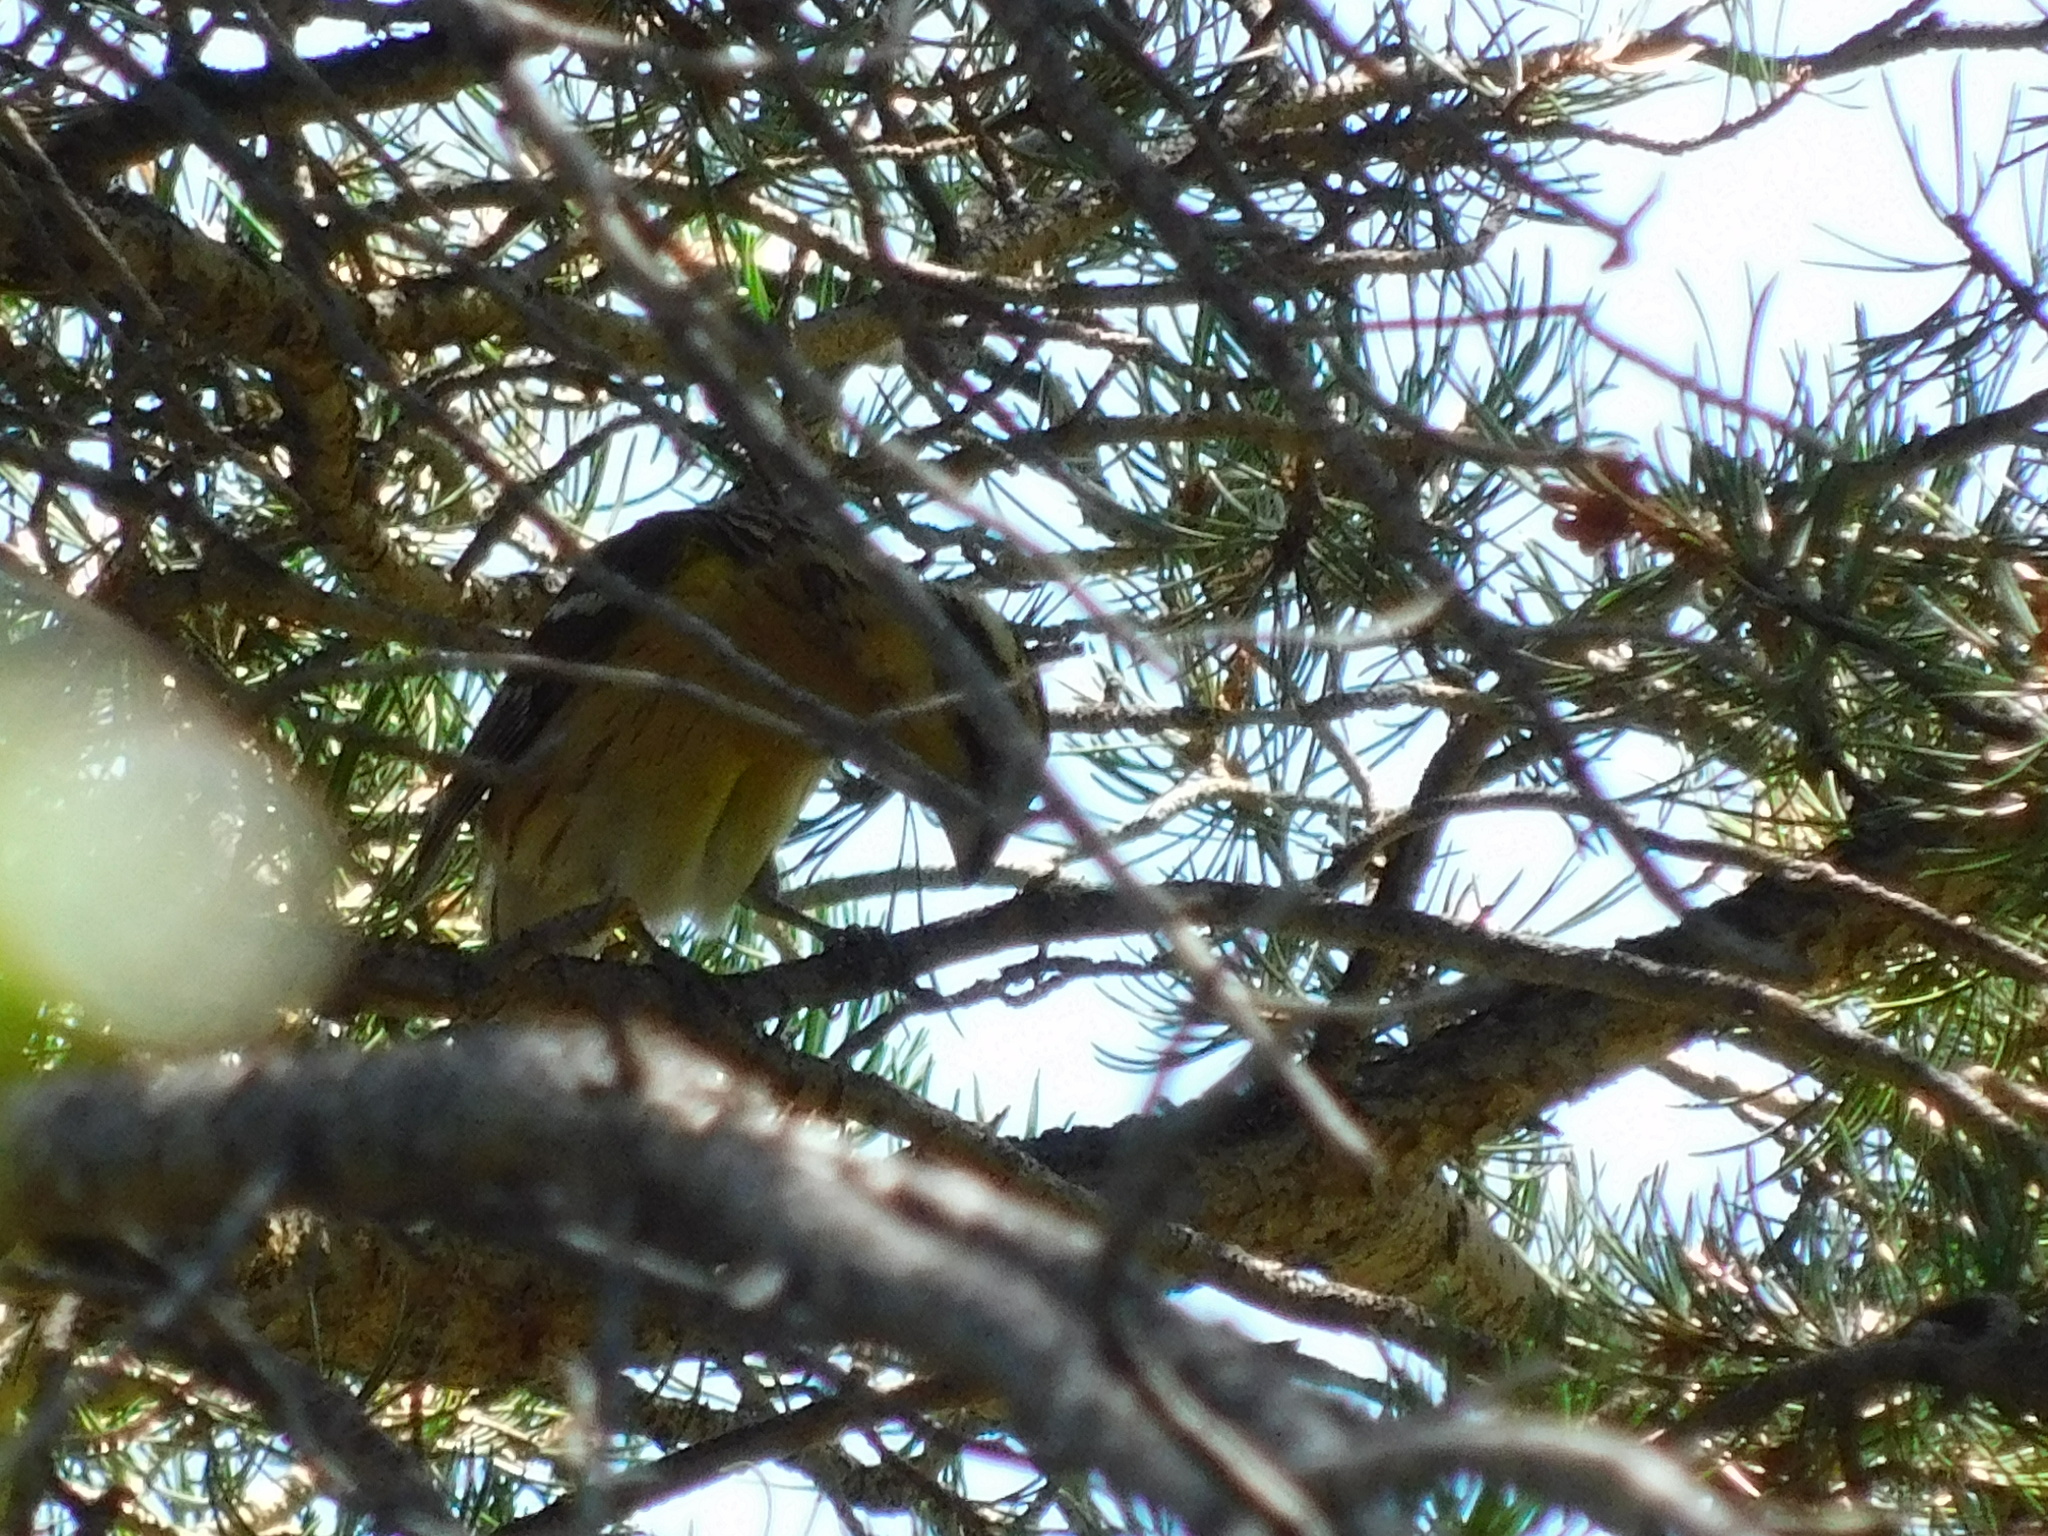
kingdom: Animalia
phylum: Chordata
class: Aves
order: Passeriformes
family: Cardinalidae
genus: Pheucticus
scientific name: Pheucticus melanocephalus
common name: Black-headed grosbeak
